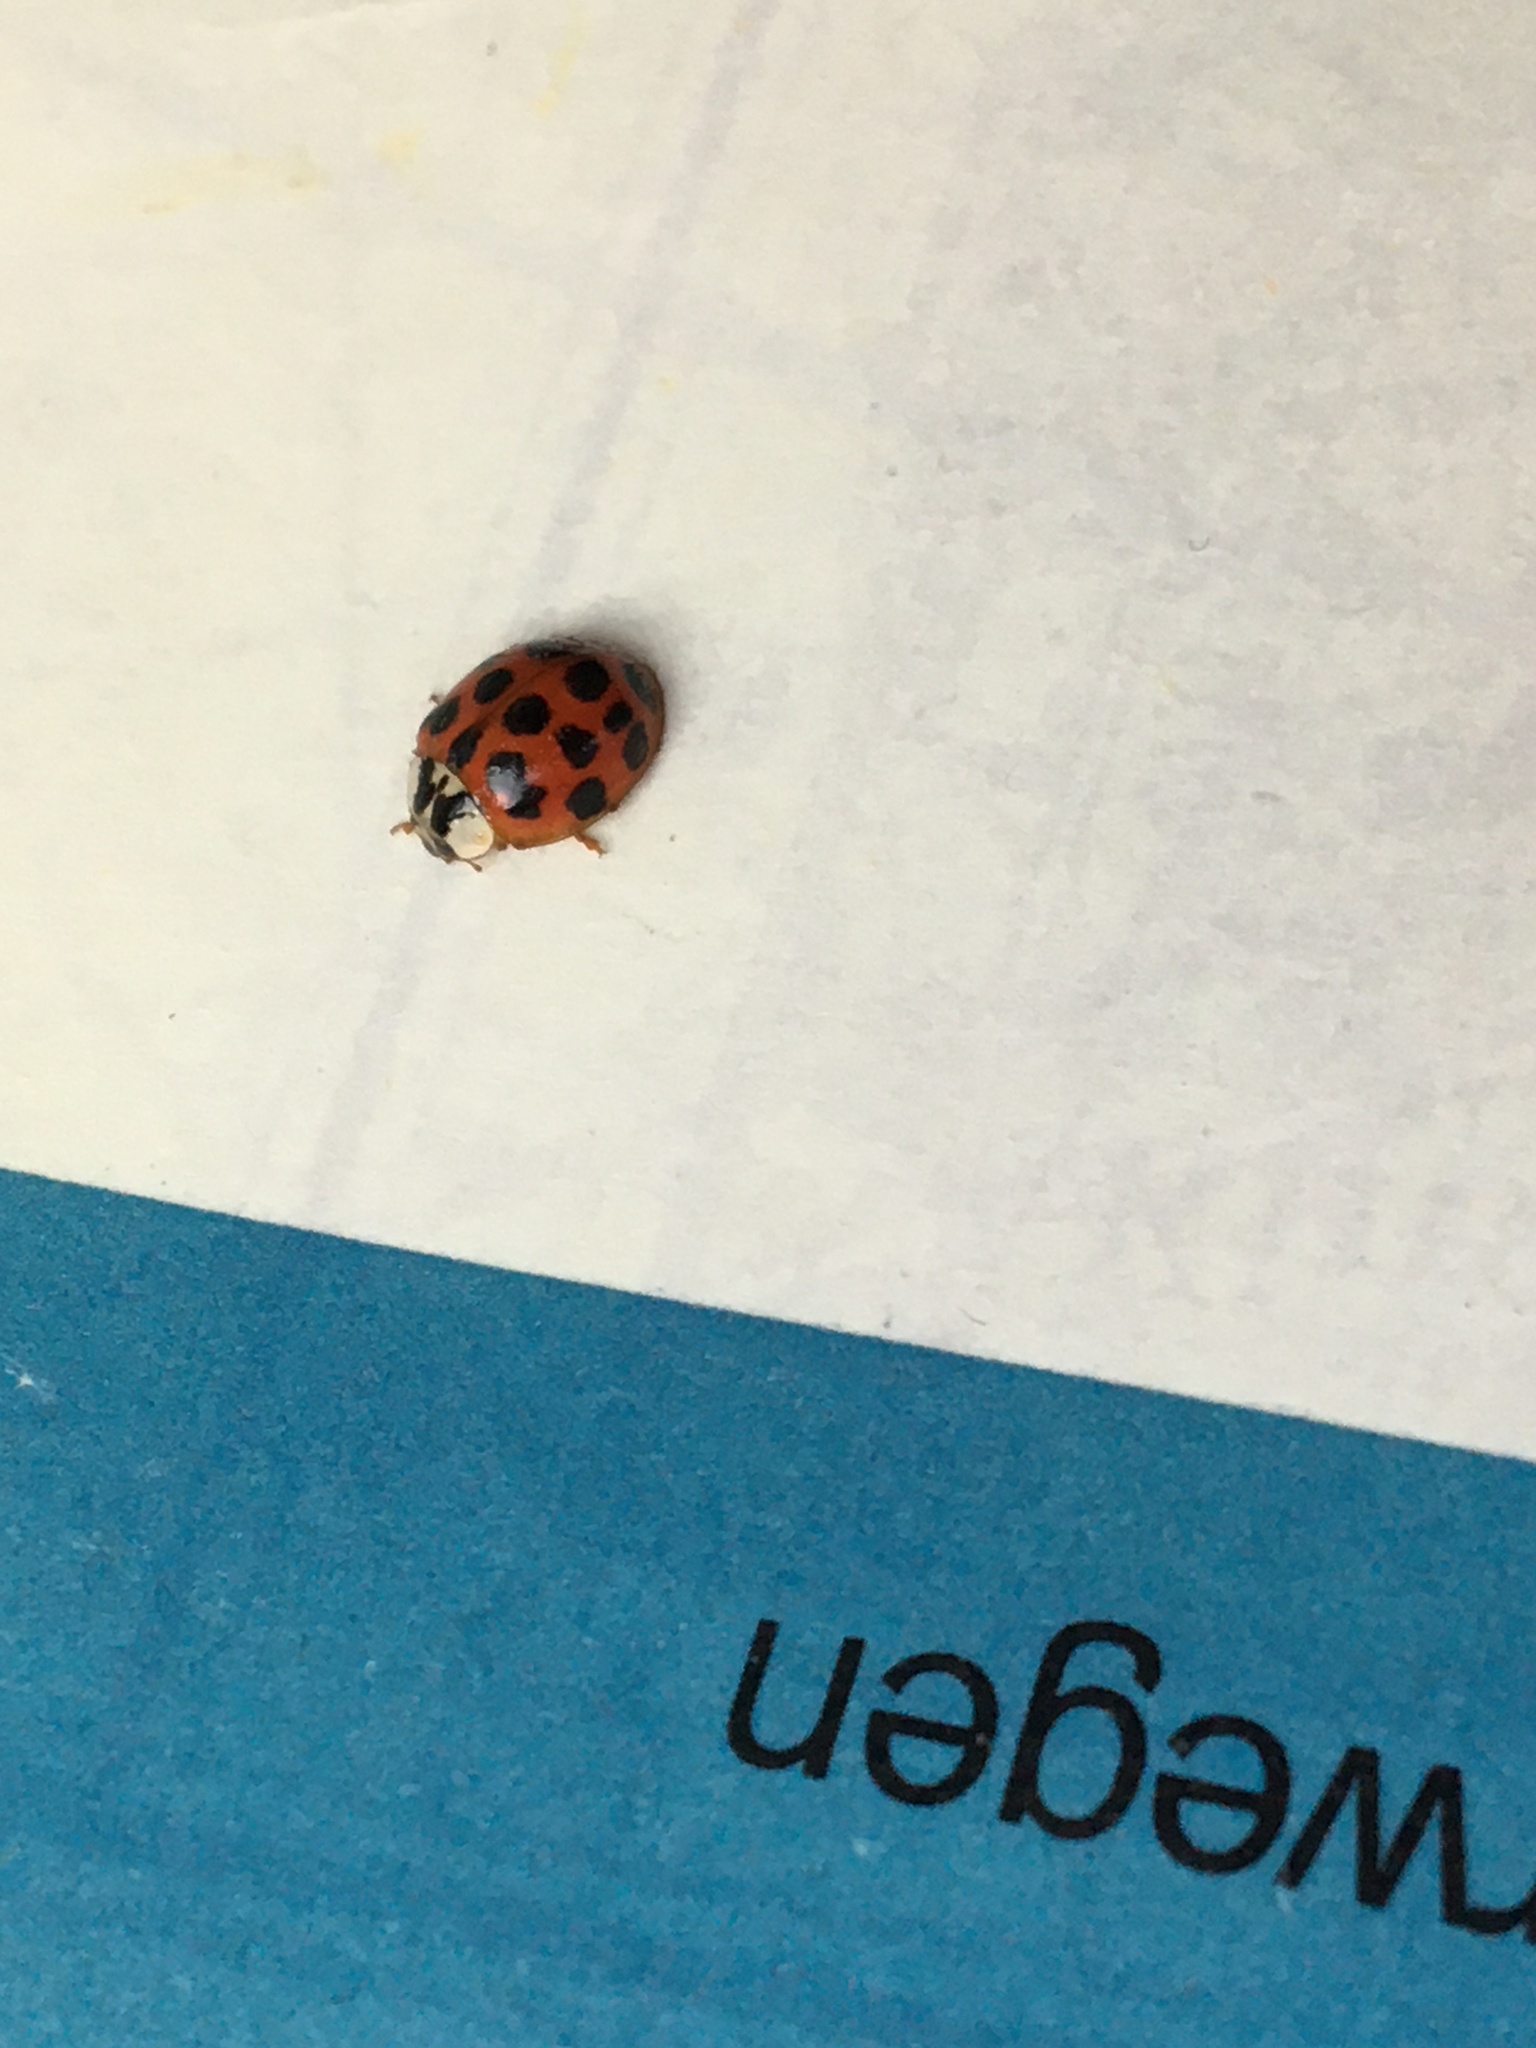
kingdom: Animalia
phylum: Arthropoda
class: Insecta
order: Coleoptera
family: Coccinellidae
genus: Harmonia
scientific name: Harmonia axyridis
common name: Harlequin ladybird
